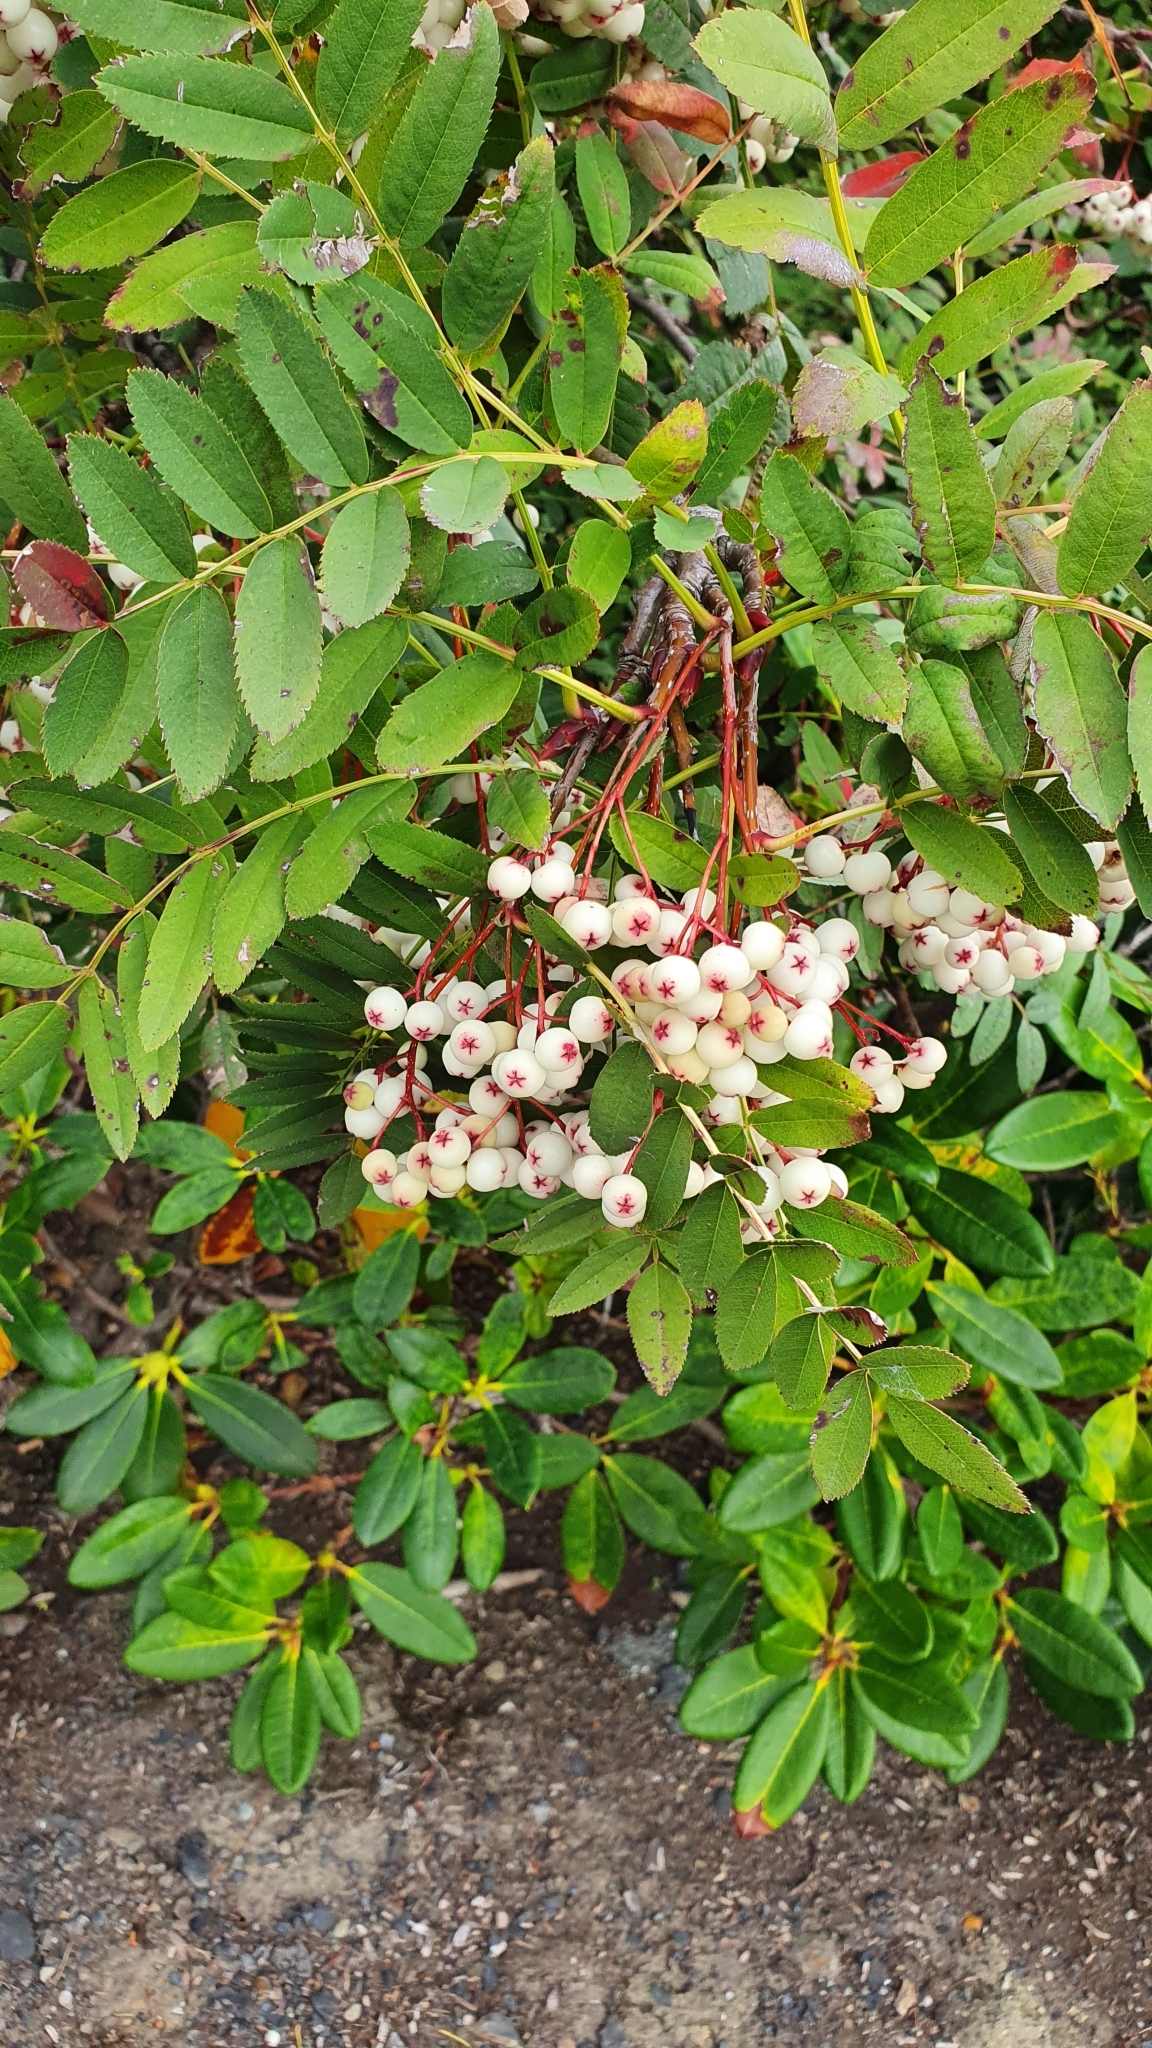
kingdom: Plantae
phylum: Tracheophyta
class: Magnoliopsida
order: Rosales
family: Rosaceae
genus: Sorbus
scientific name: Sorbus koehneana
